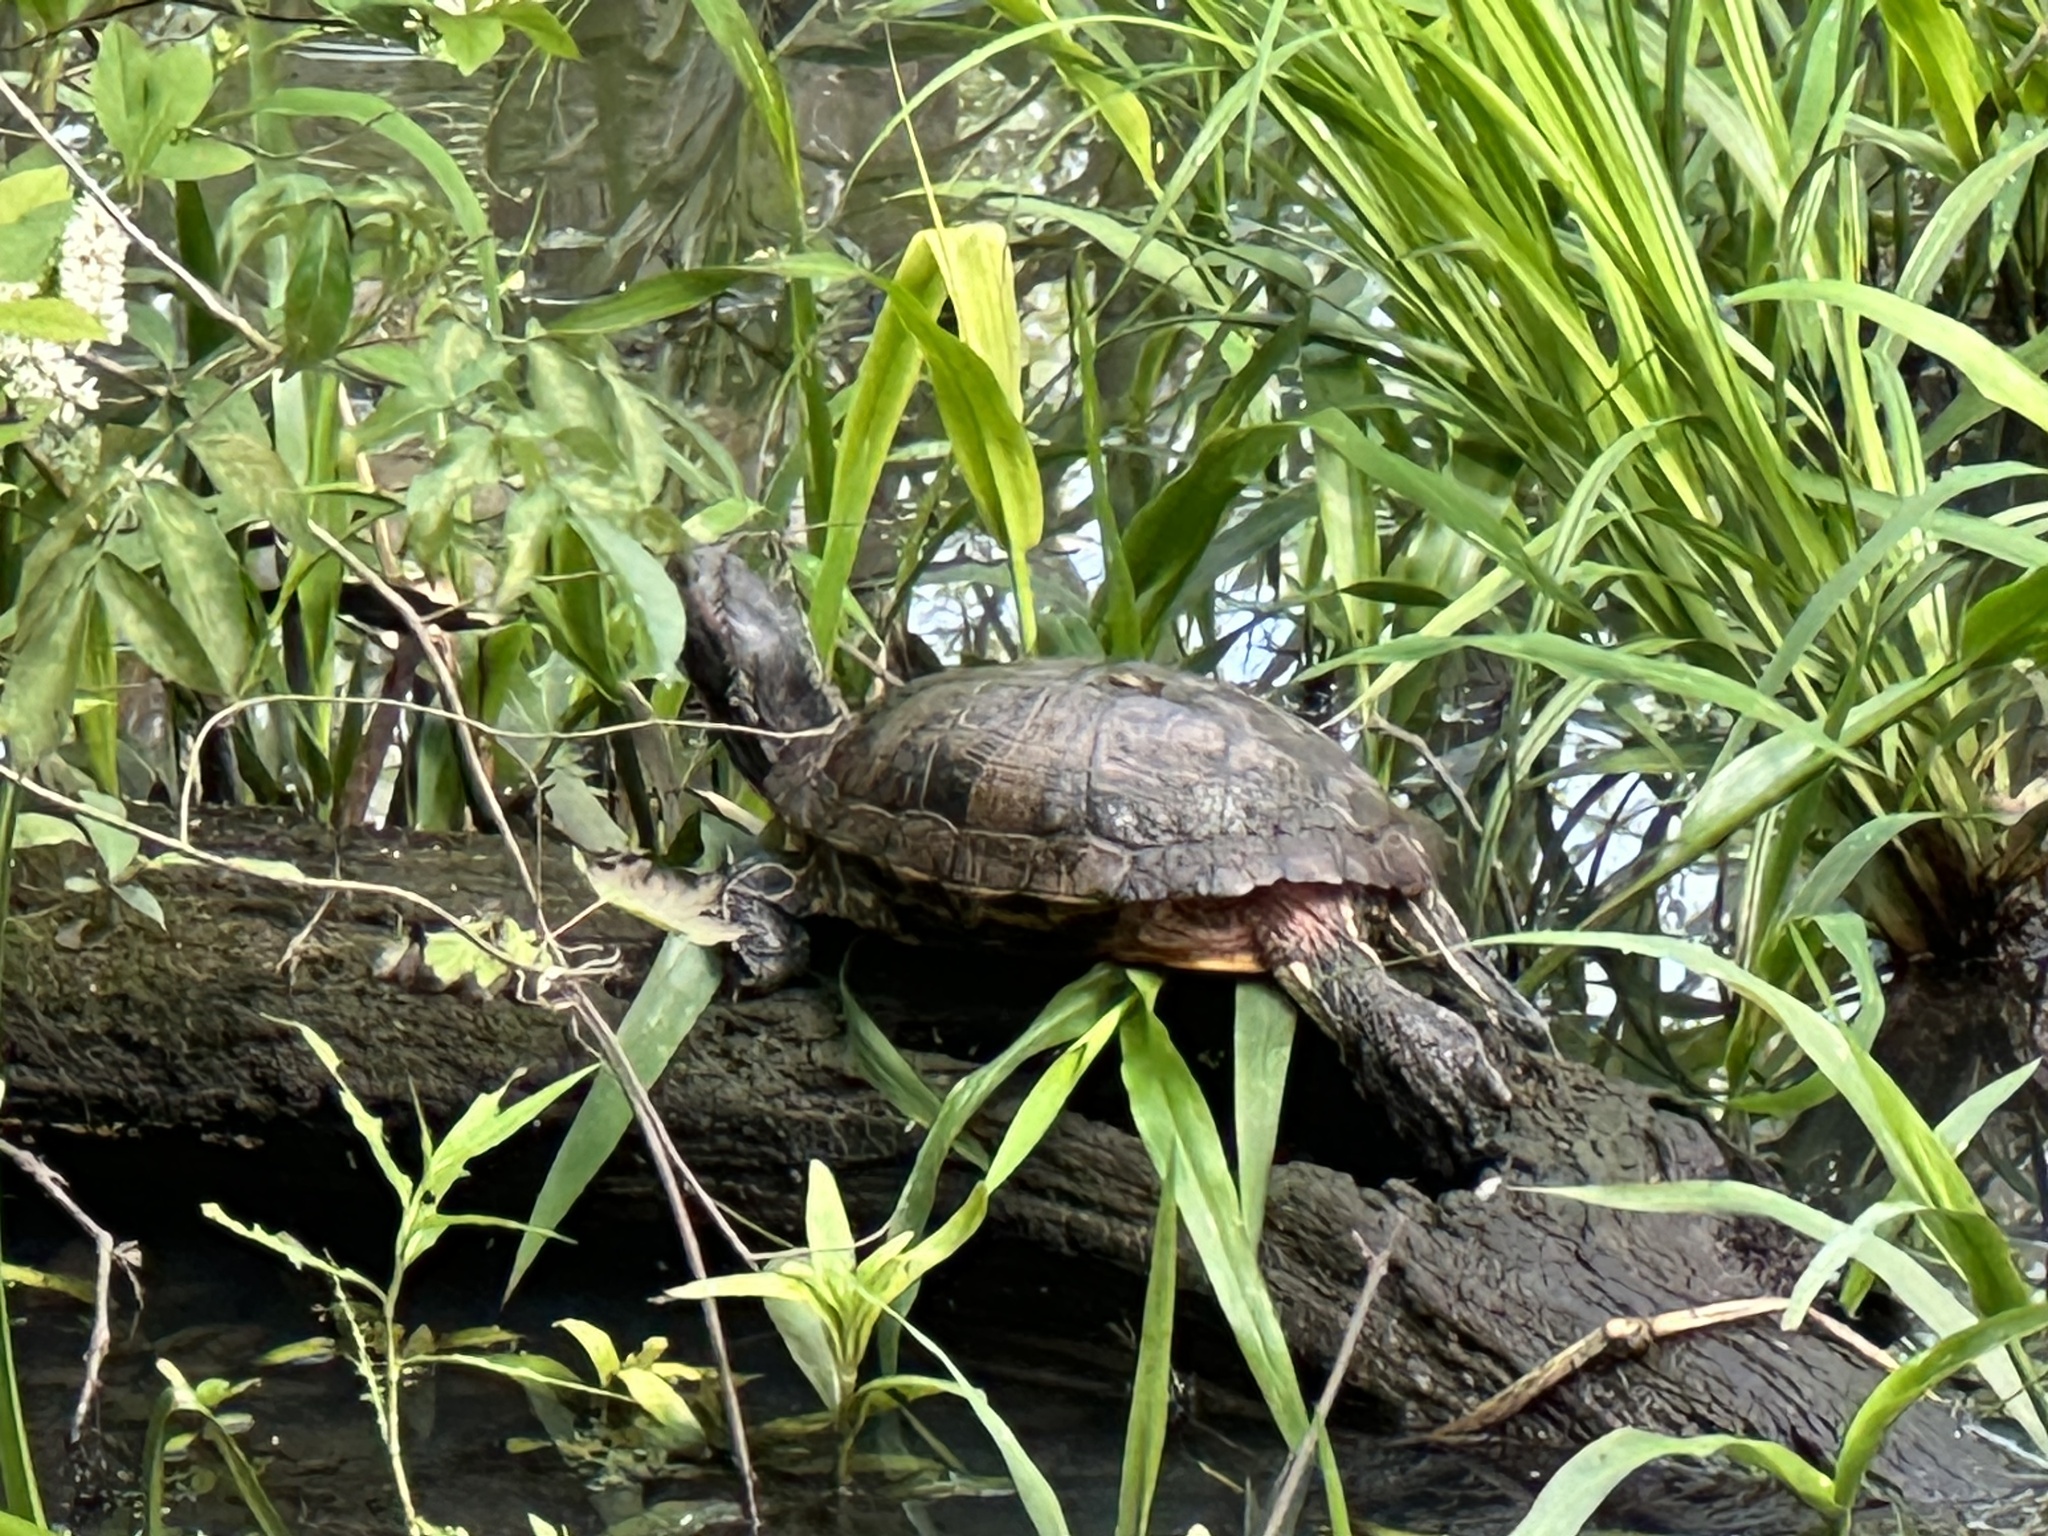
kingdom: Animalia
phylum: Chordata
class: Testudines
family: Emydidae
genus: Trachemys
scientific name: Trachemys scripta
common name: Slider
